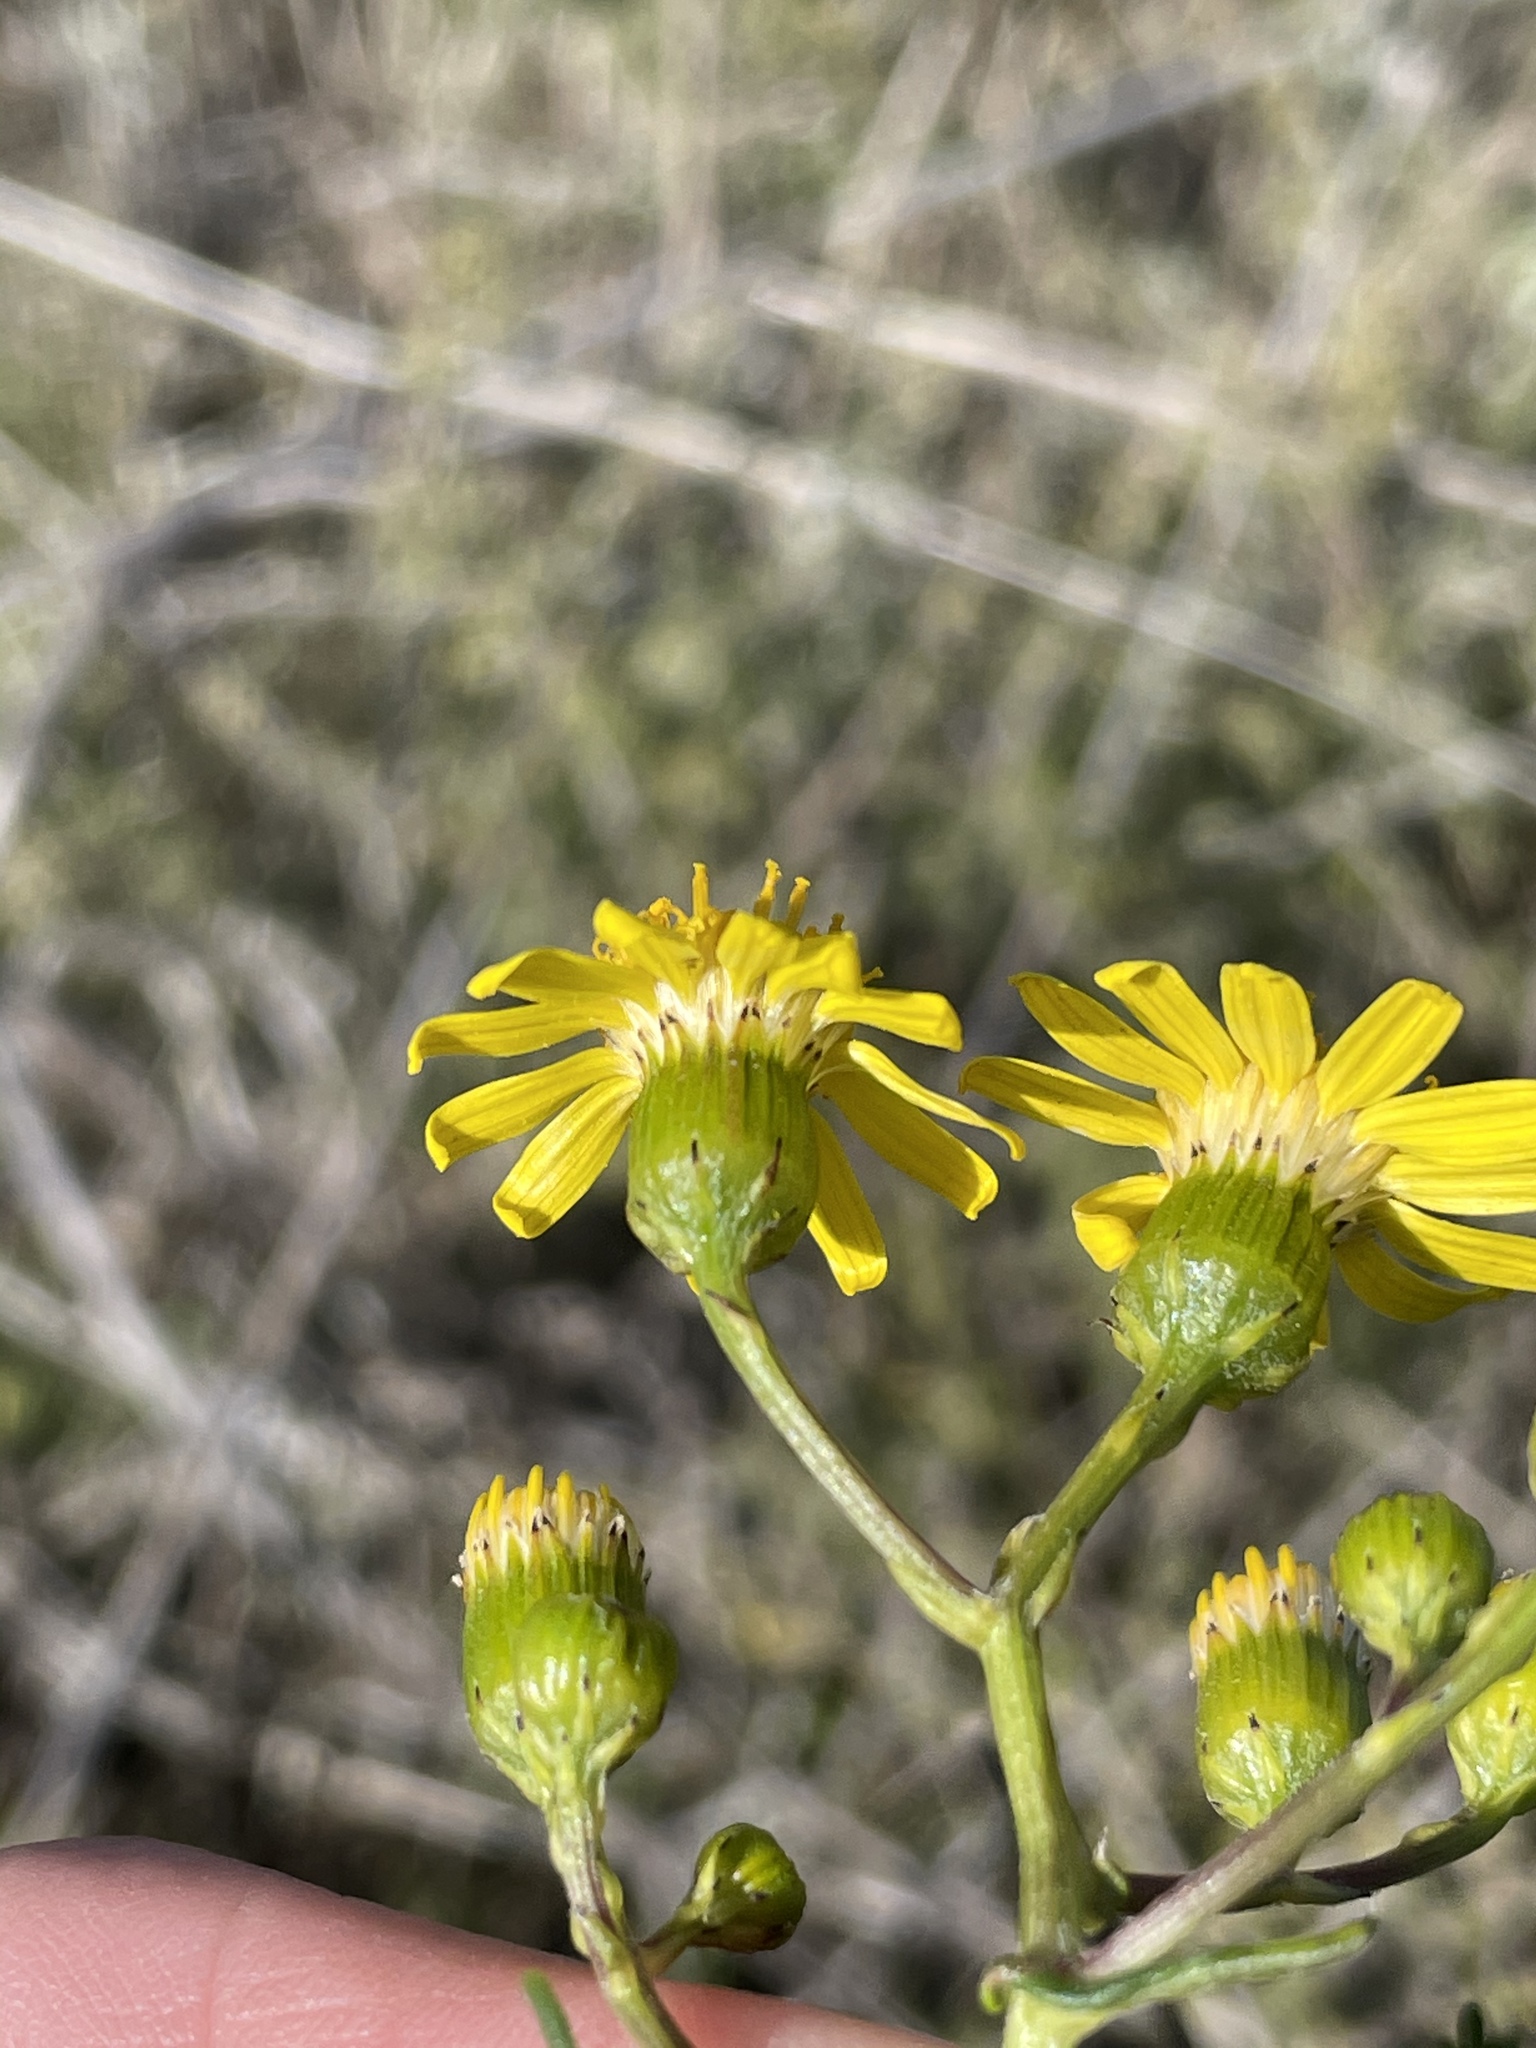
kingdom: Plantae
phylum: Tracheophyta
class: Magnoliopsida
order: Asterales
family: Asteraceae
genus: Senecio
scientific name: Senecio lyonii
